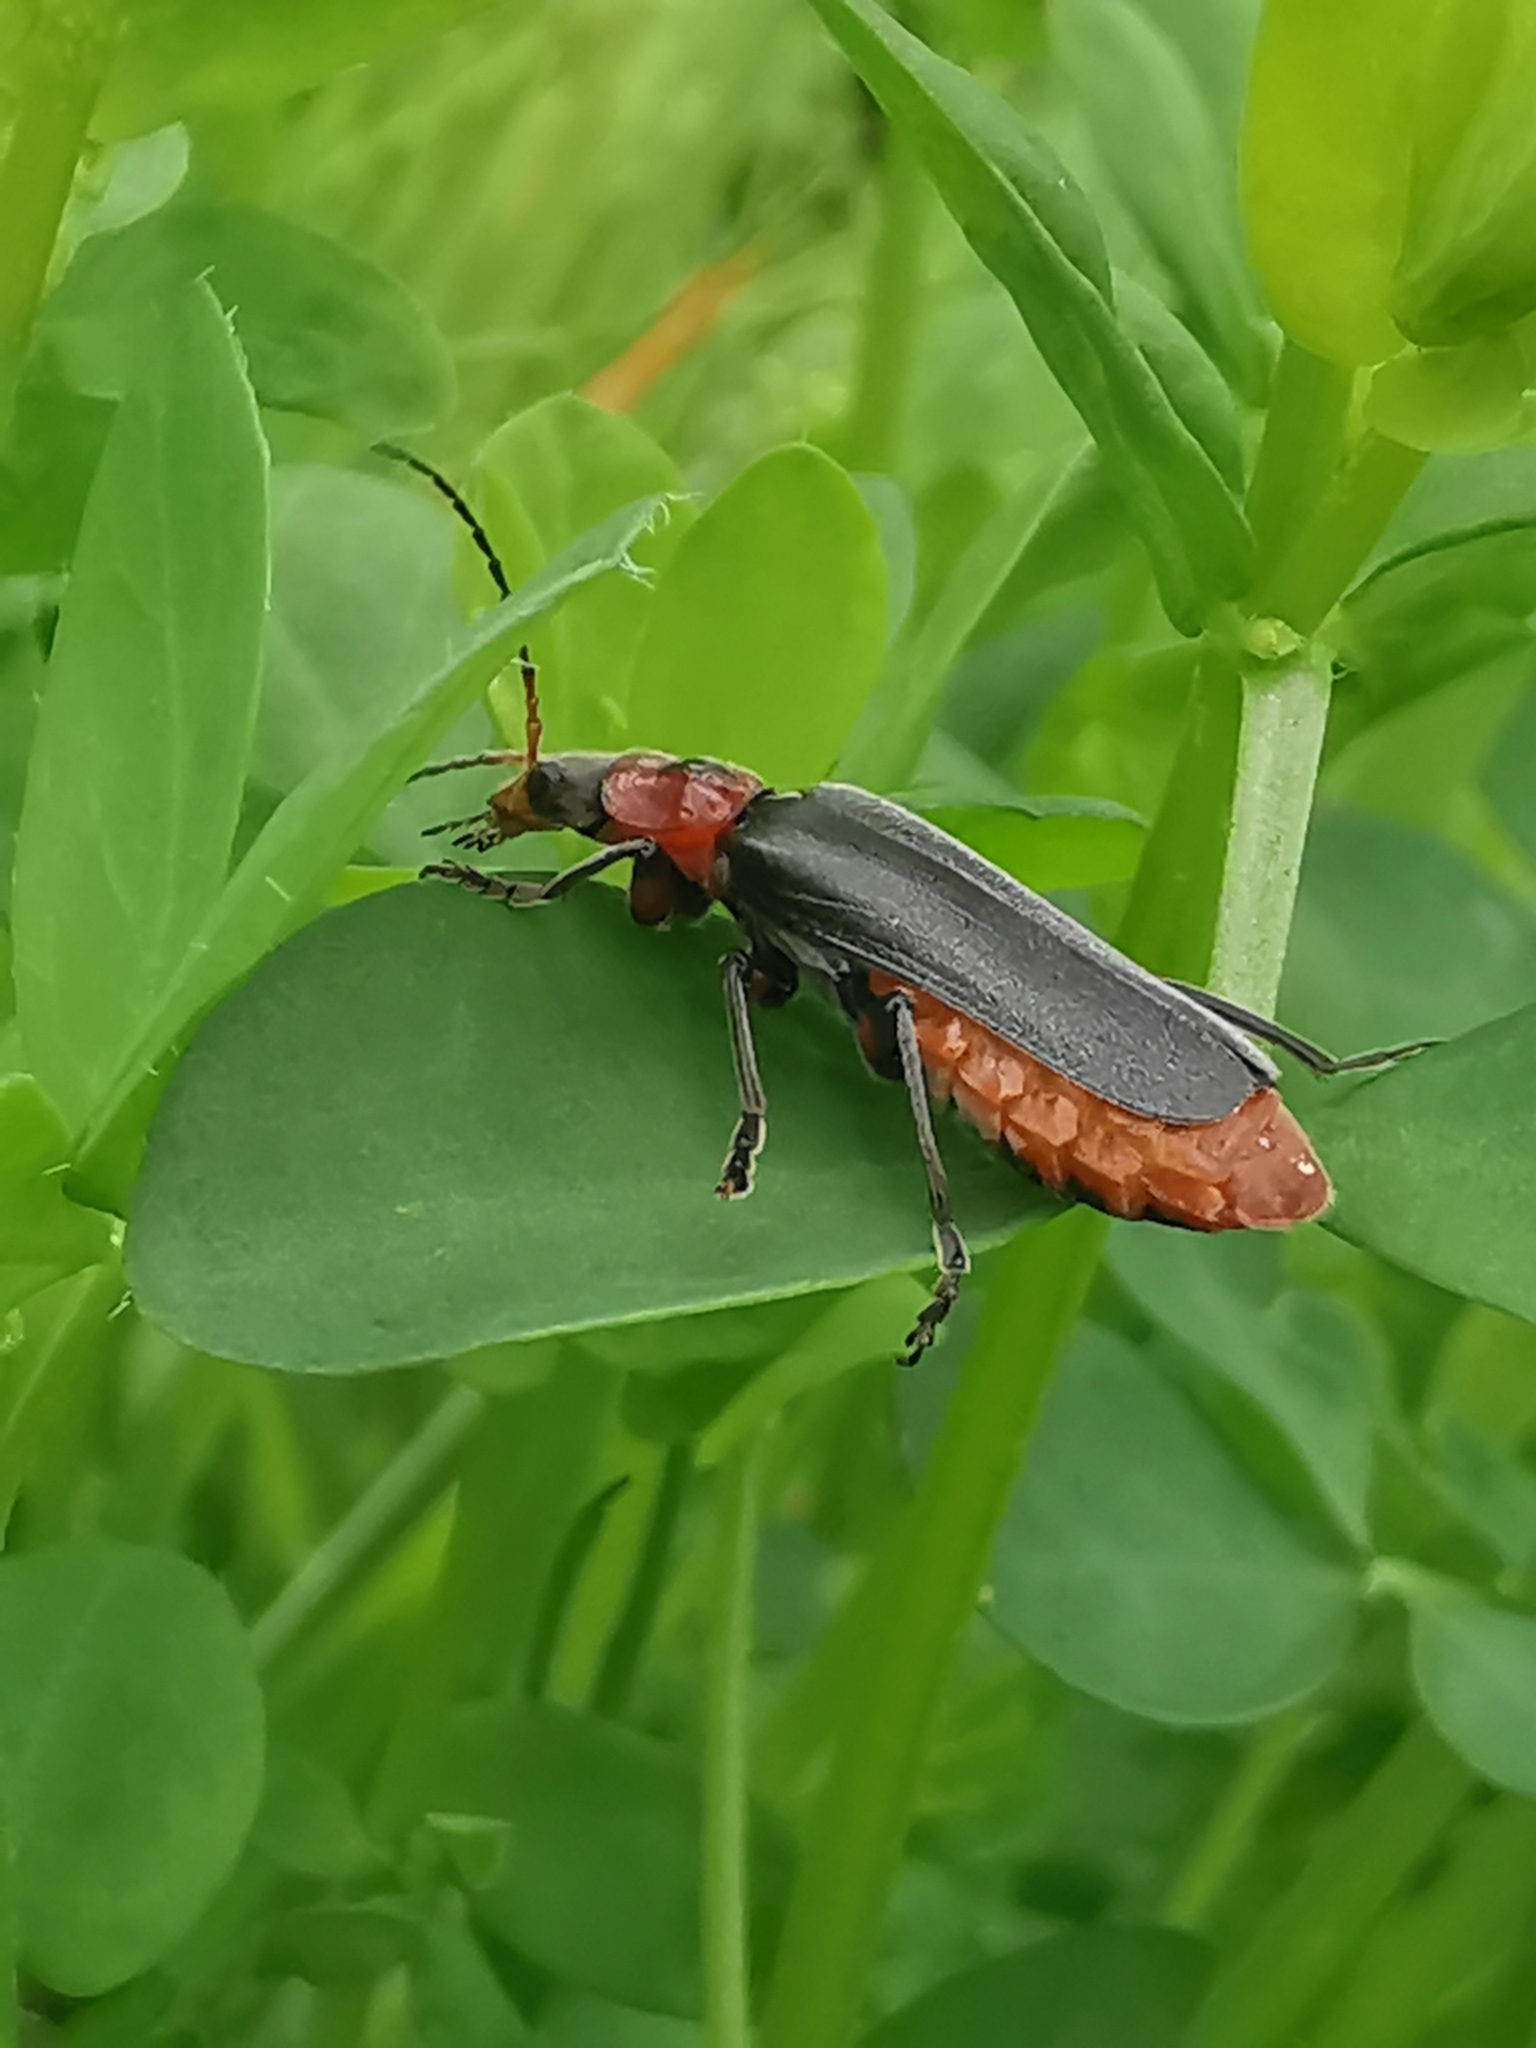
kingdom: Animalia
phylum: Arthropoda
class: Insecta
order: Coleoptera
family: Cantharidae
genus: Cantharis
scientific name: Cantharis rustica
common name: Soldier beetle
